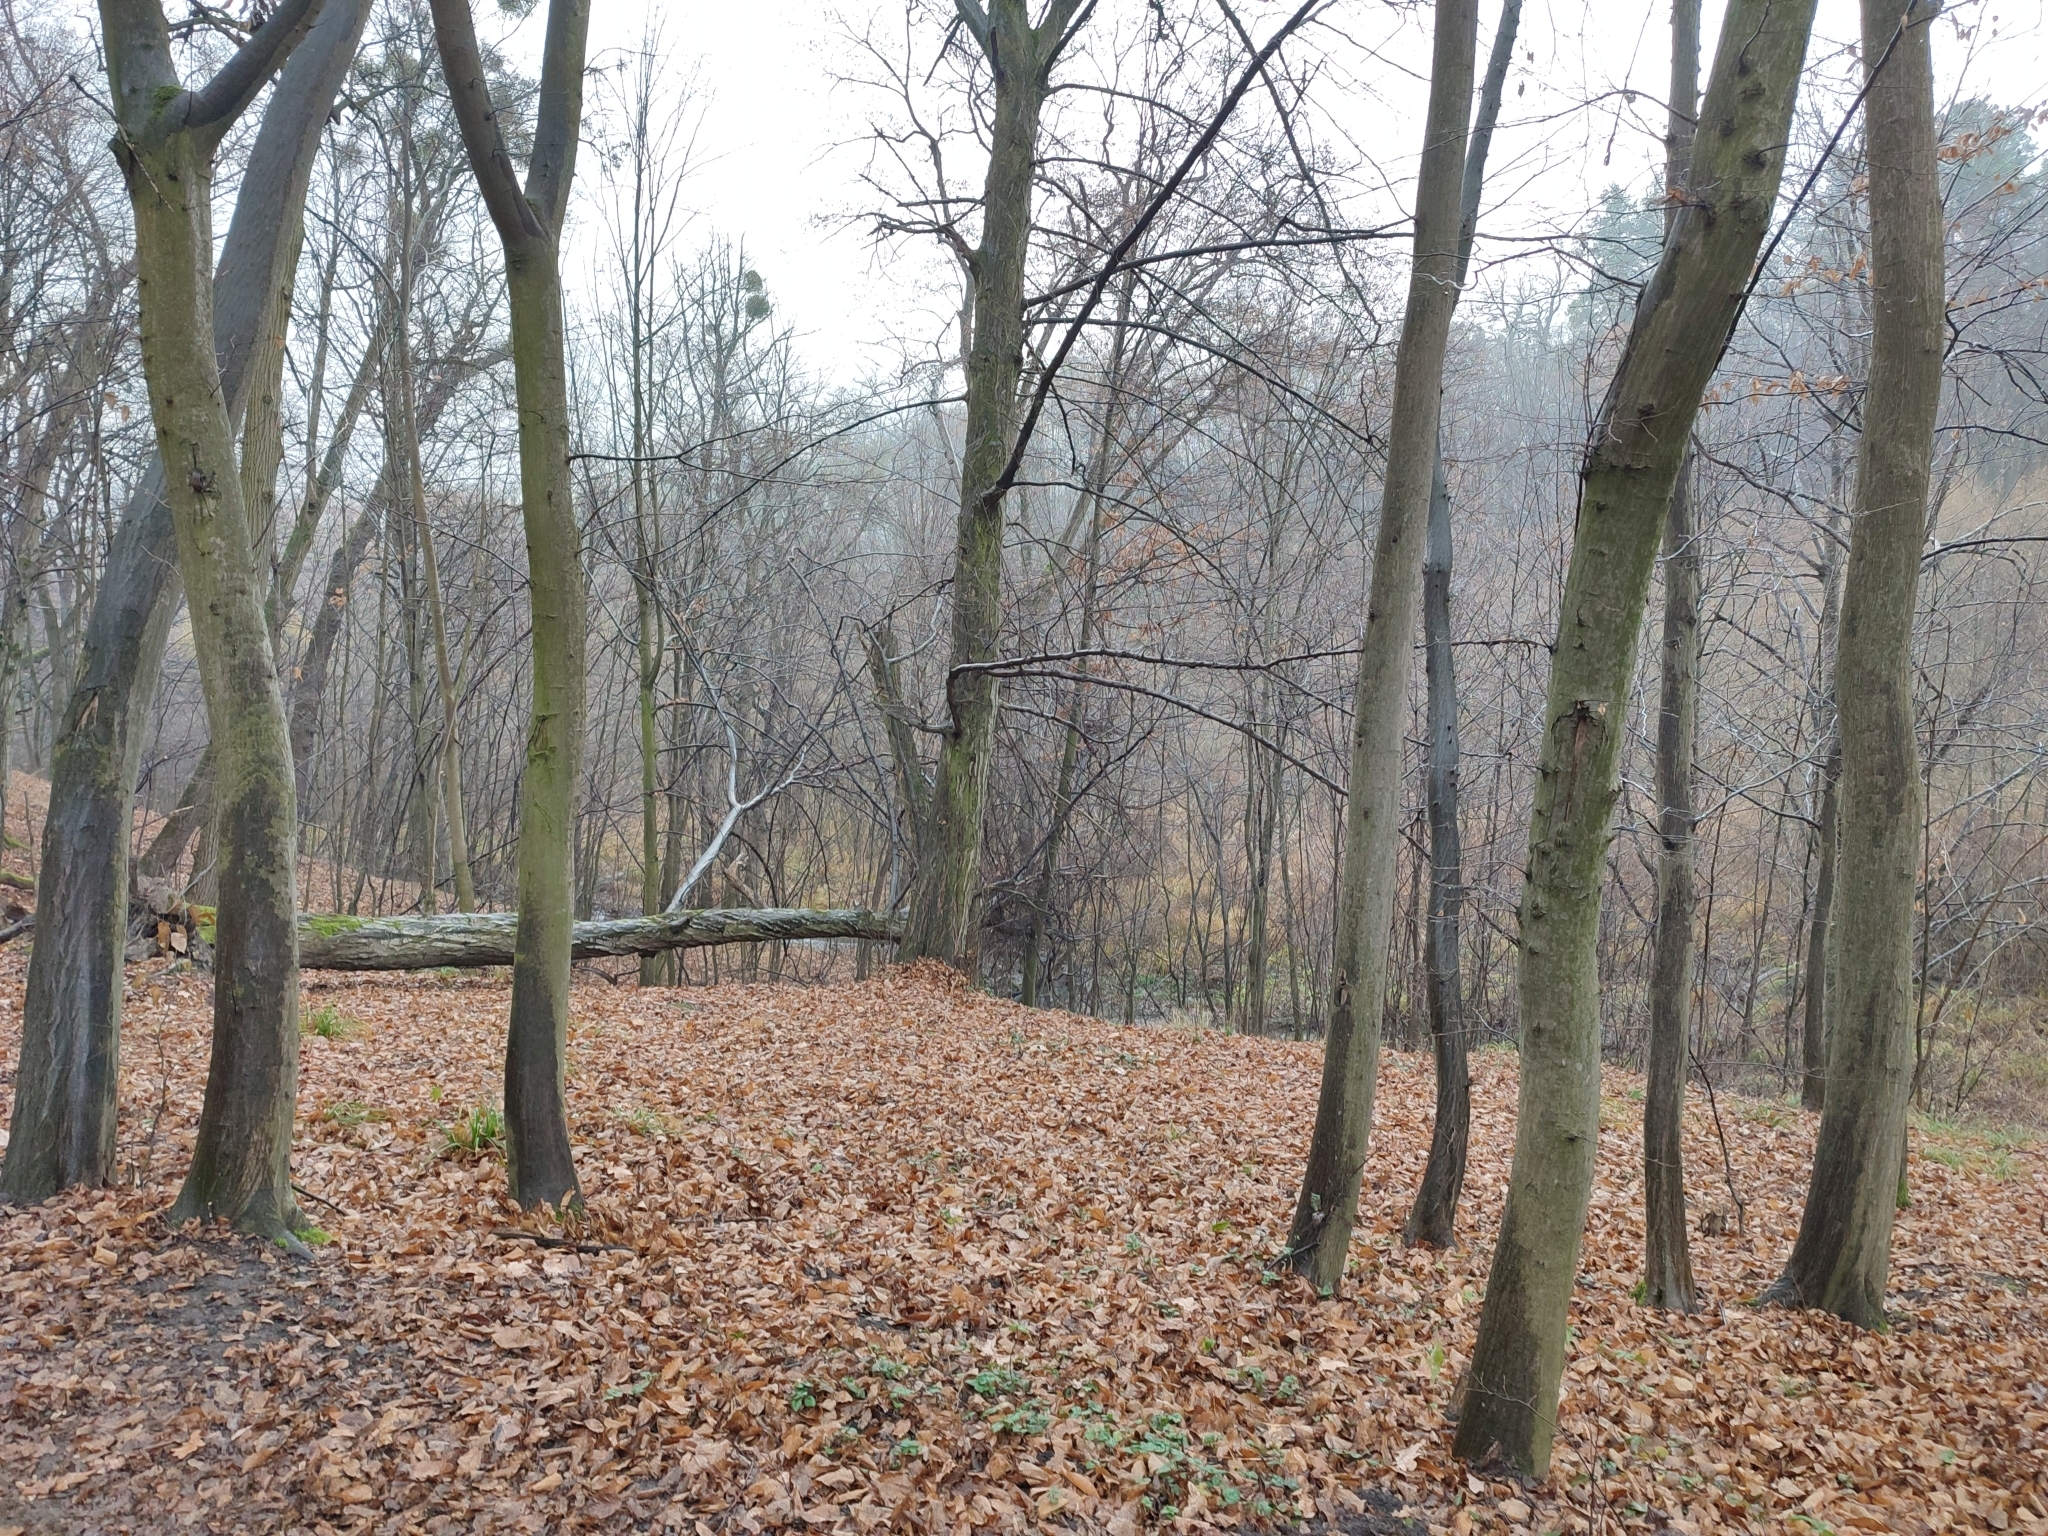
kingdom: Plantae
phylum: Tracheophyta
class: Magnoliopsida
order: Fagales
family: Betulaceae
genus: Carpinus
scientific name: Carpinus betulus
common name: Hornbeam
